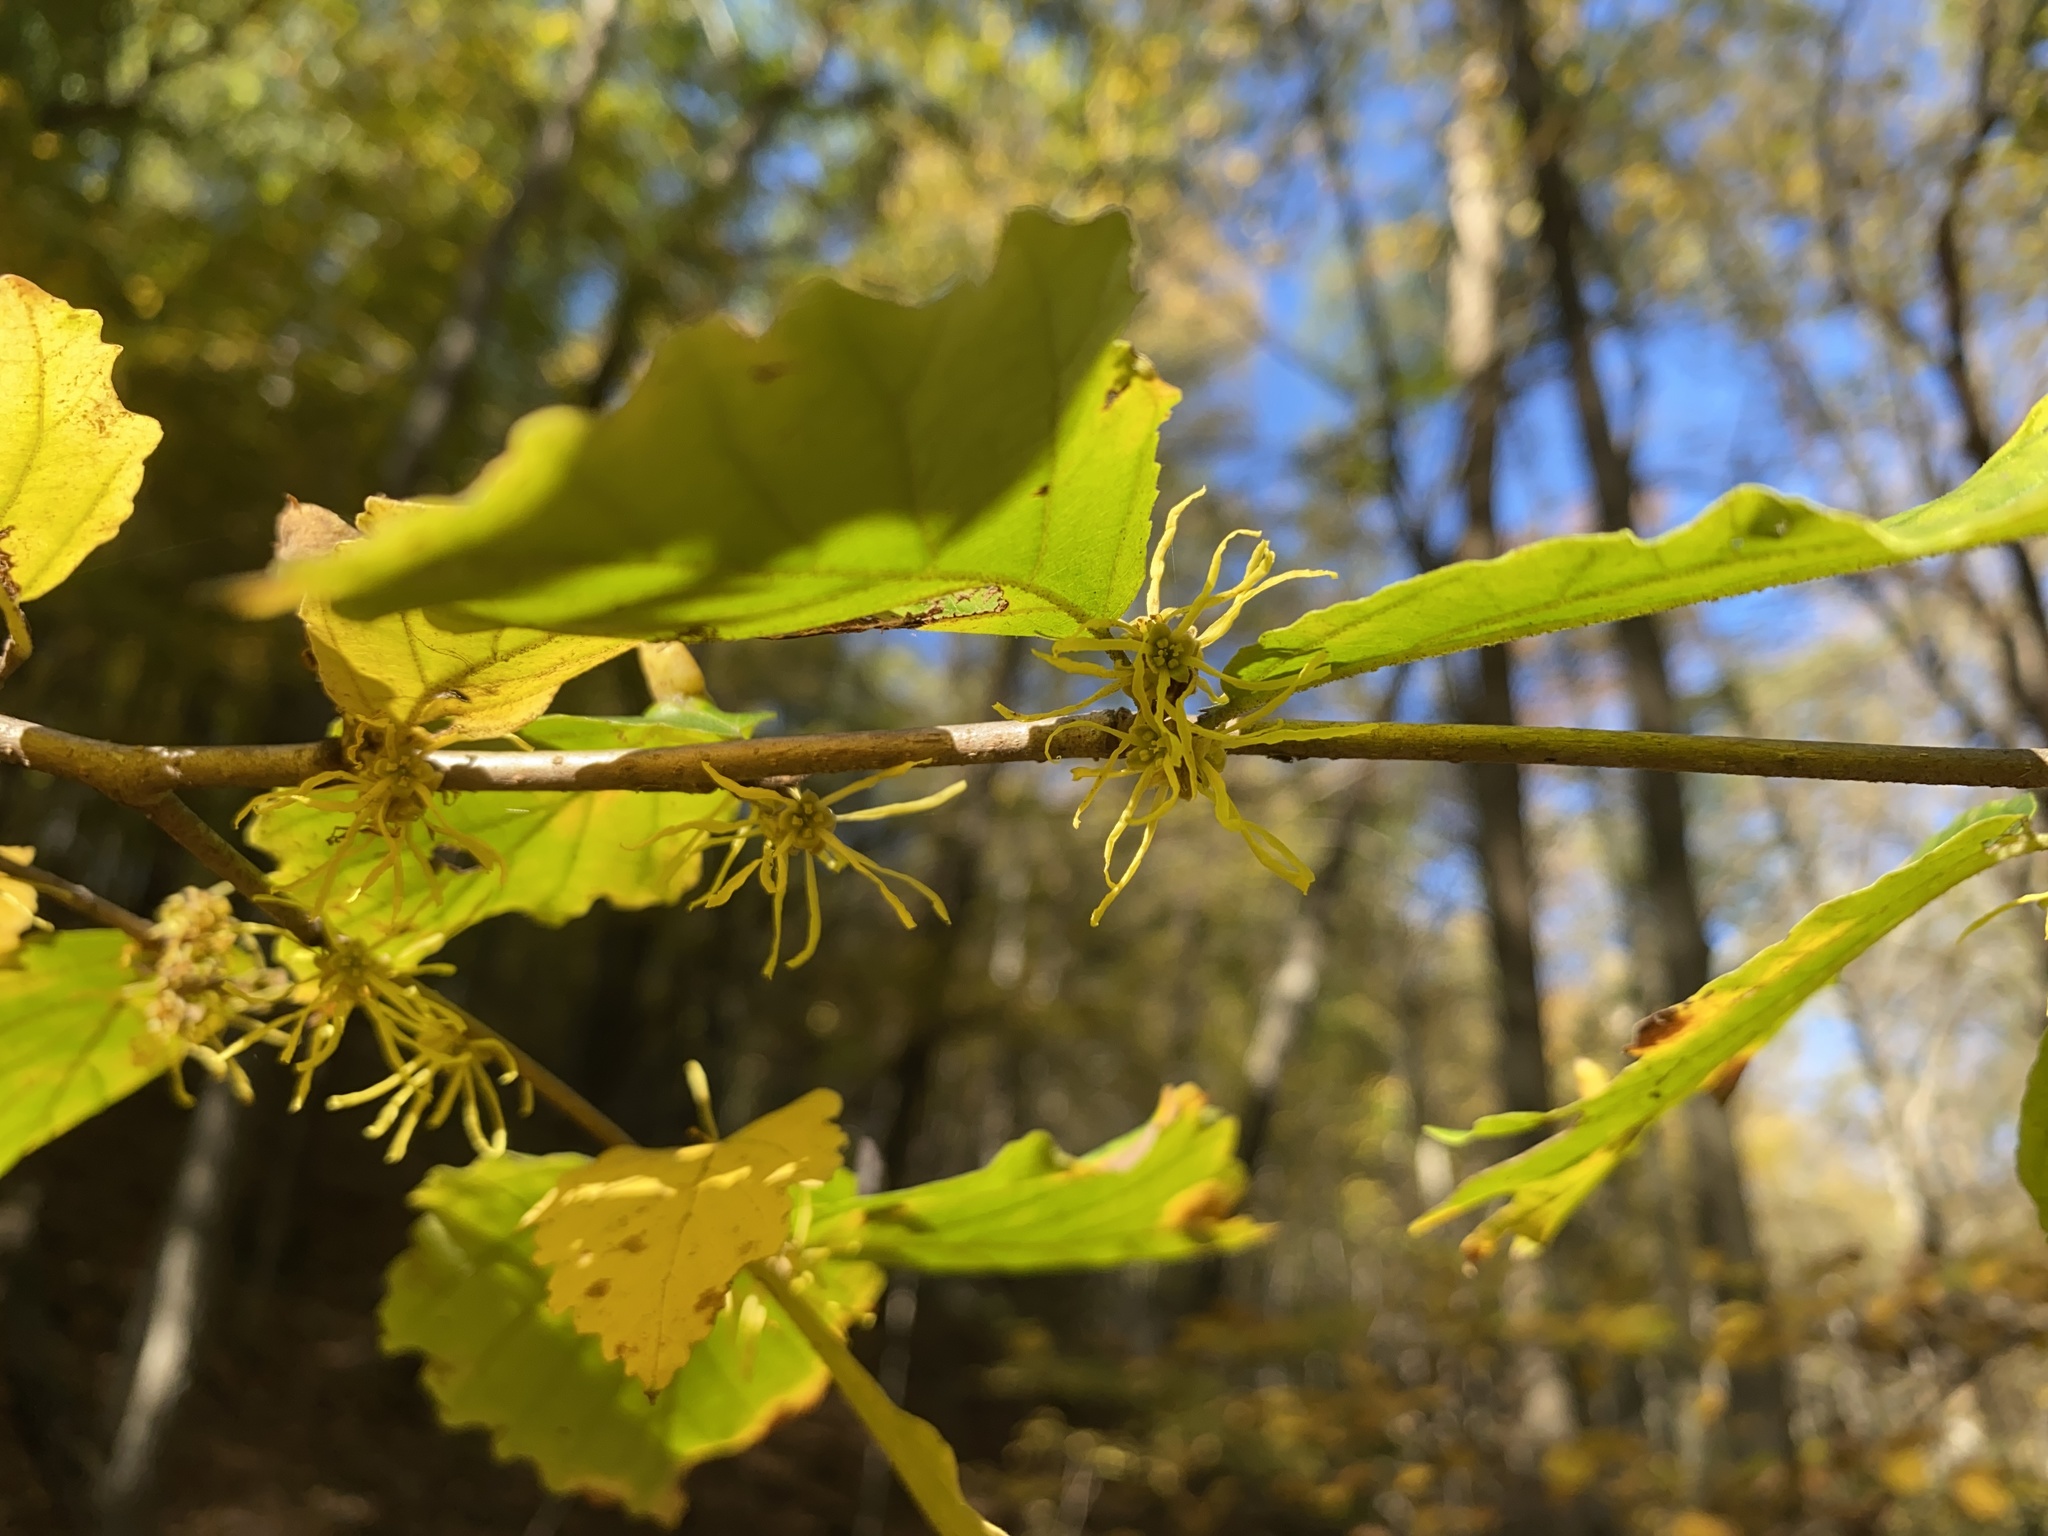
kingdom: Plantae
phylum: Tracheophyta
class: Magnoliopsida
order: Saxifragales
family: Hamamelidaceae
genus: Hamamelis
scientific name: Hamamelis virginiana
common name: Witch-hazel
